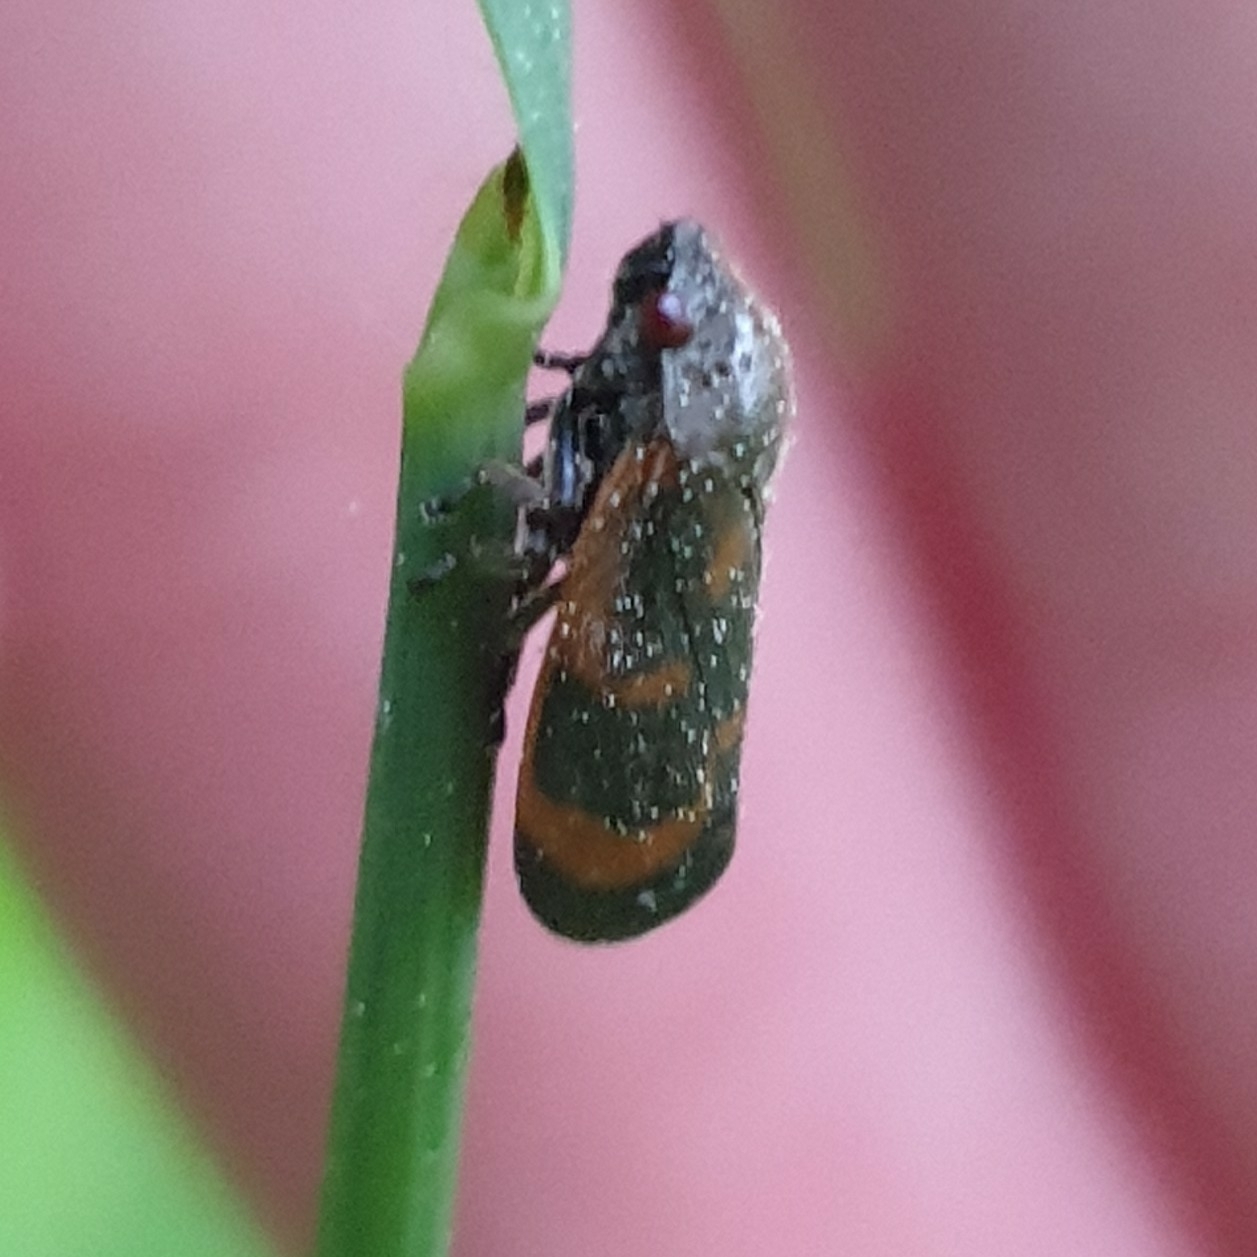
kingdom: Animalia
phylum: Arthropoda
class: Insecta
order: Hemiptera
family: Cercopidae
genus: Haematoloma
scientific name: Haematoloma dorsata
